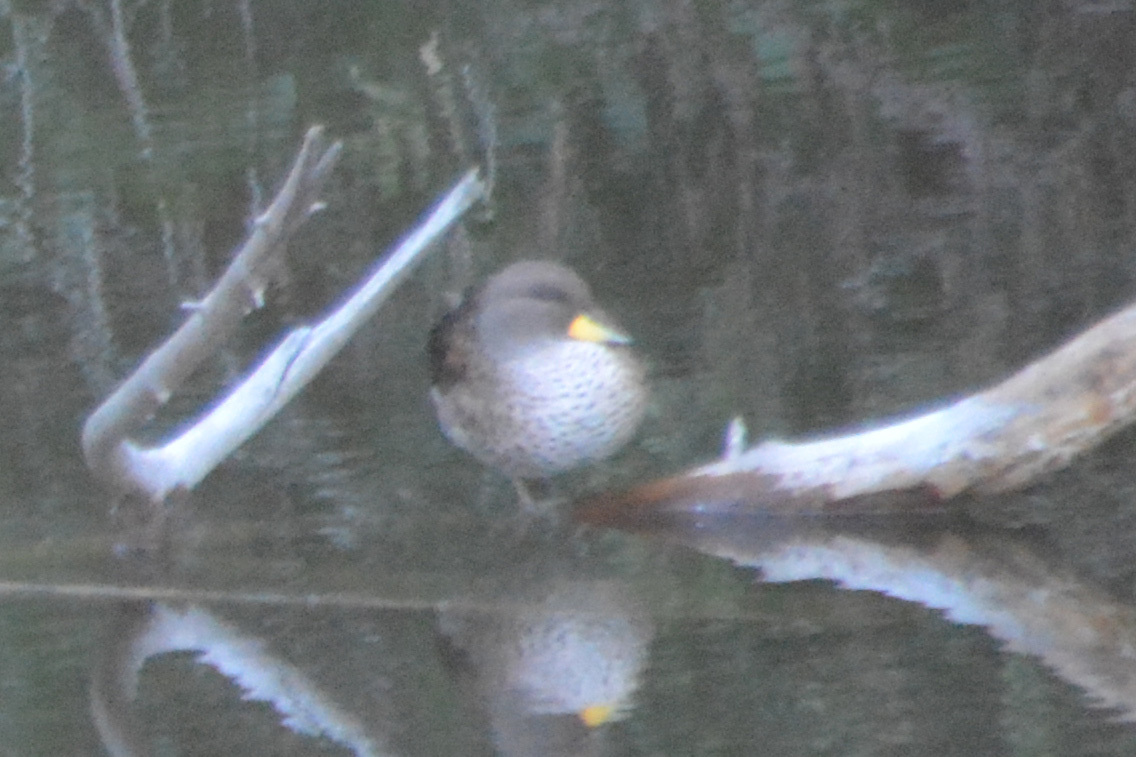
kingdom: Animalia
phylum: Chordata
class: Aves
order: Anseriformes
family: Anatidae
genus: Anas
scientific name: Anas flavirostris
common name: Yellow-billed teal
